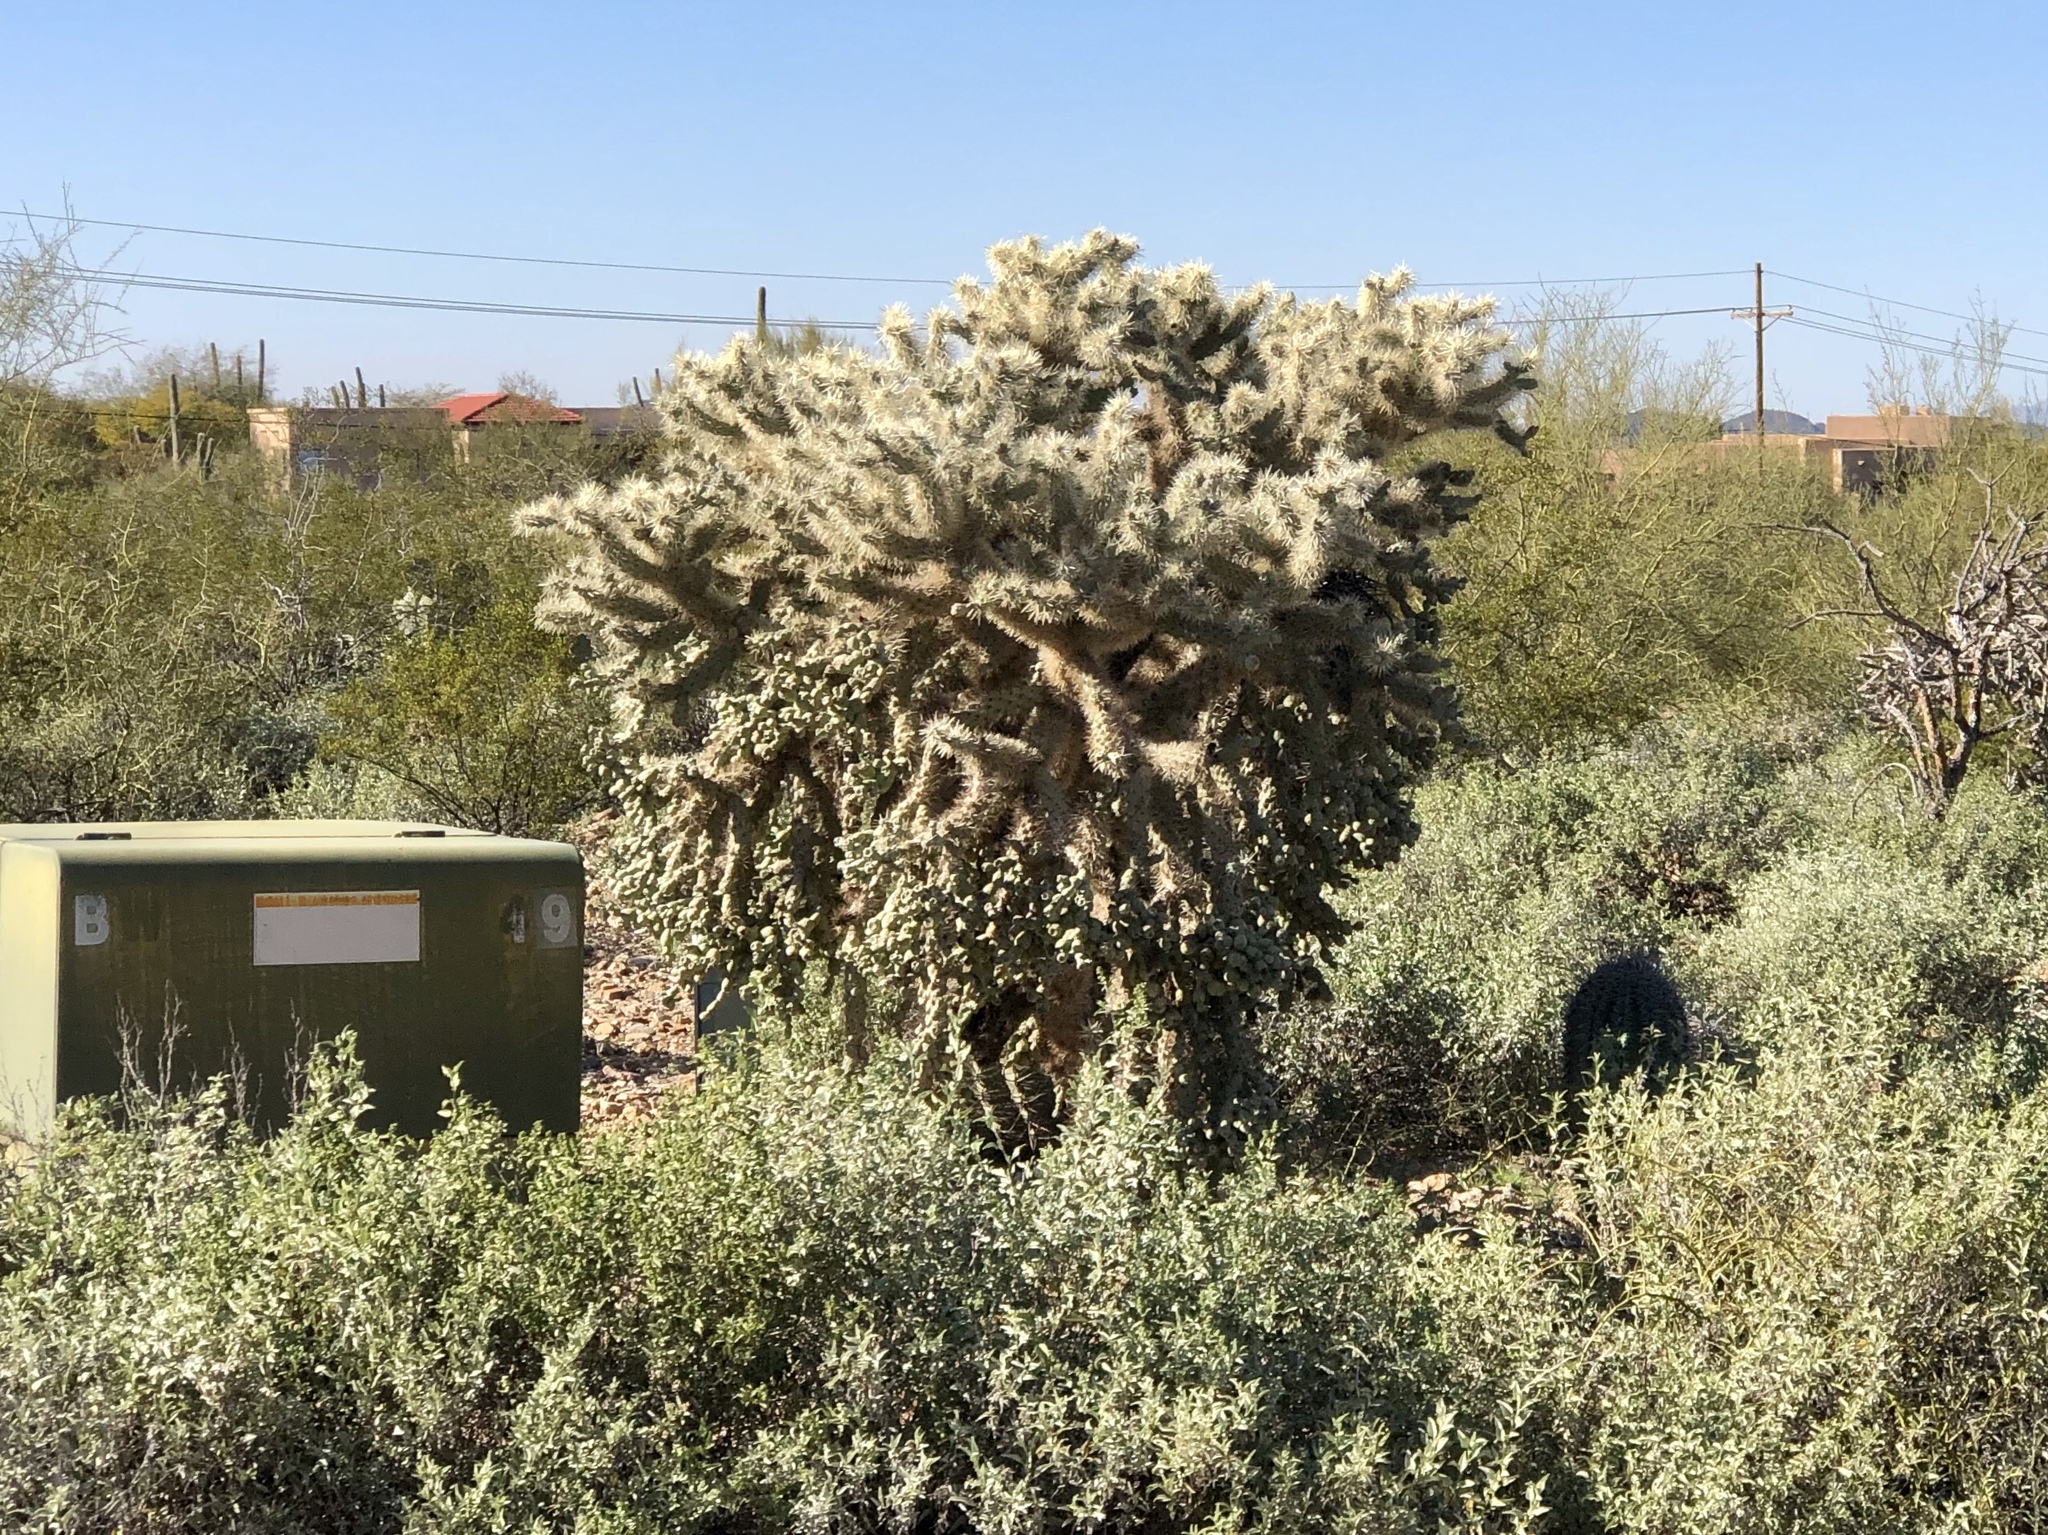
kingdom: Plantae
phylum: Tracheophyta
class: Magnoliopsida
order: Caryophyllales
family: Cactaceae
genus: Cylindropuntia
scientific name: Cylindropuntia fulgida
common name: Jumping cholla
